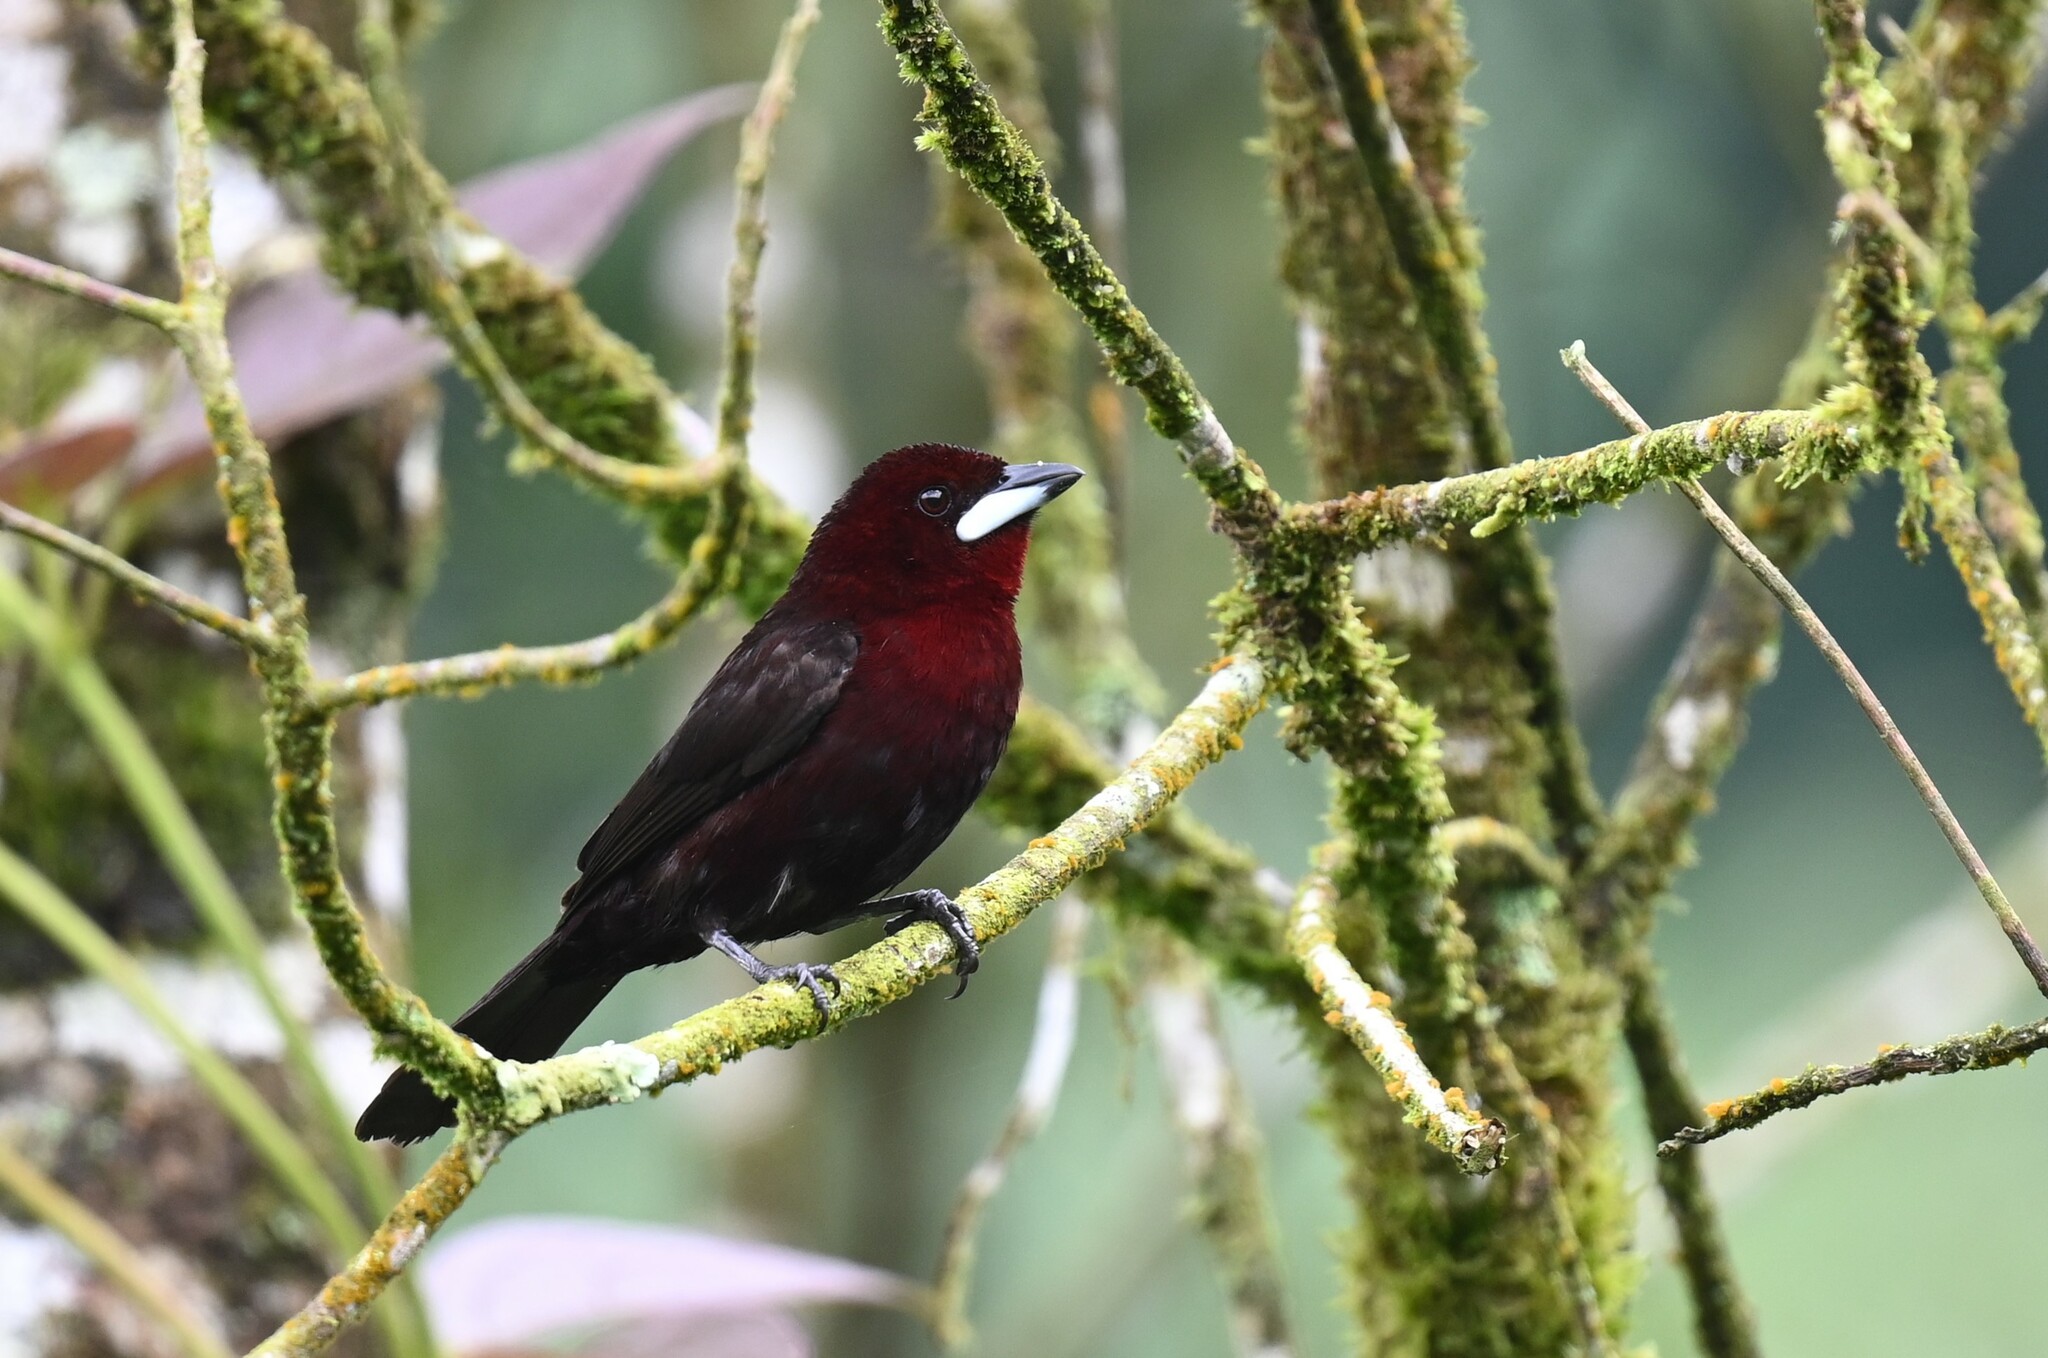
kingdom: Animalia
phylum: Chordata
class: Aves
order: Passeriformes
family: Thraupidae
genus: Ramphocelus
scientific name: Ramphocelus carbo
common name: Silver-beaked tanager
